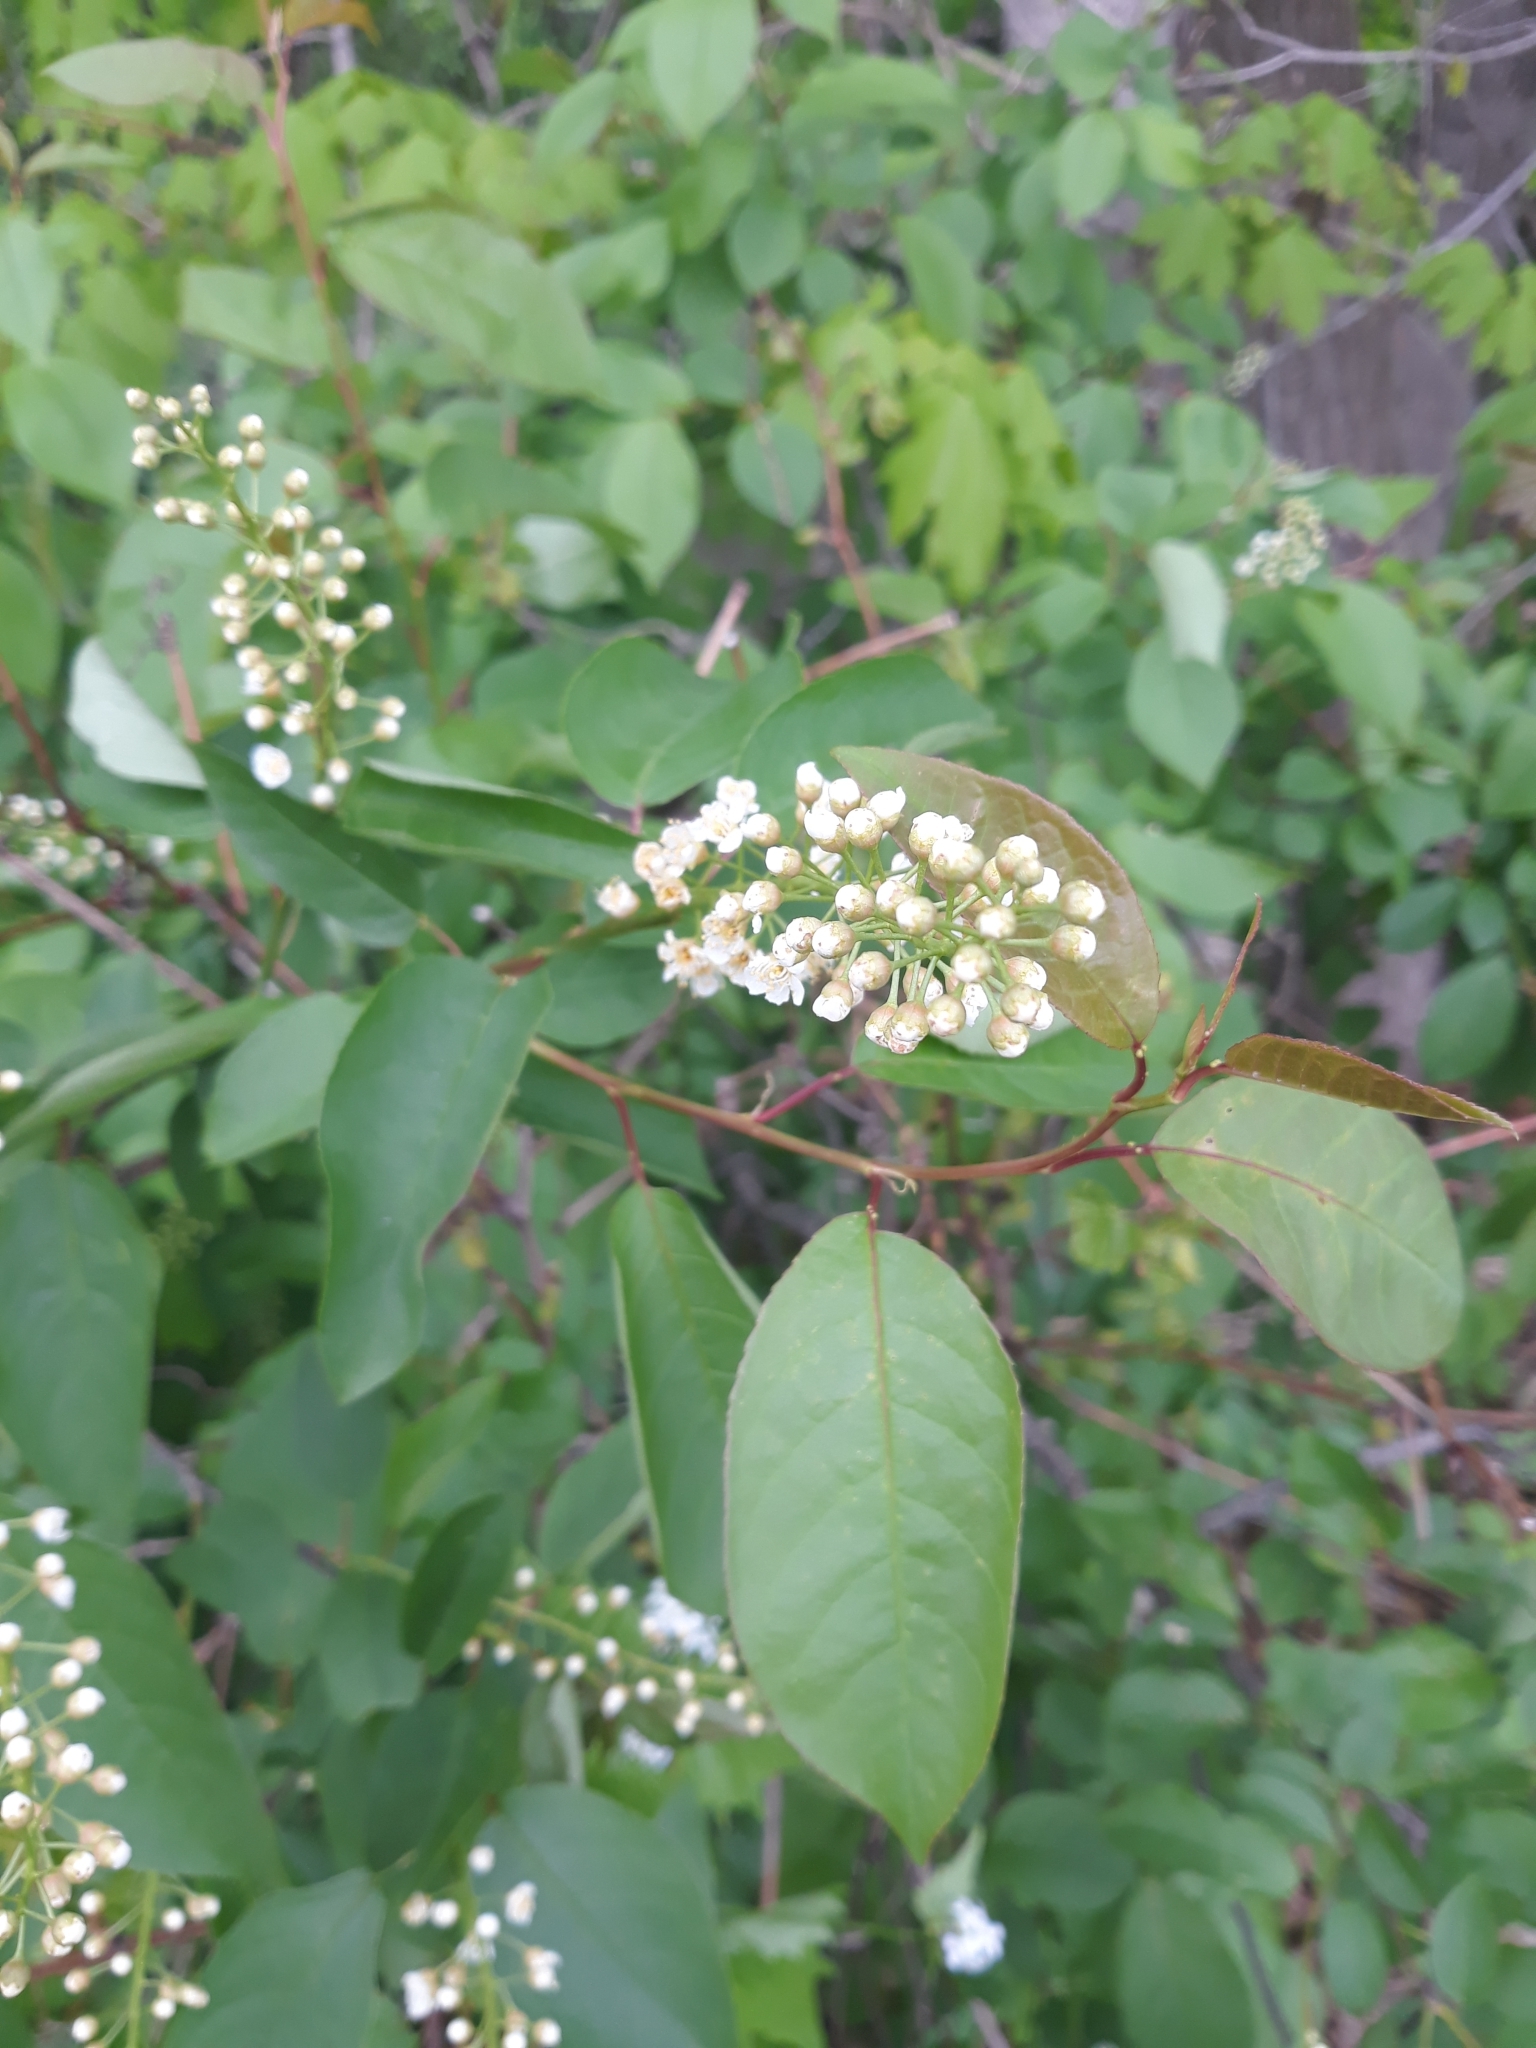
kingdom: Plantae
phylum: Tracheophyta
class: Magnoliopsida
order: Rosales
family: Rosaceae
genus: Prunus
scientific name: Prunus virginiana
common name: Chokecherry
